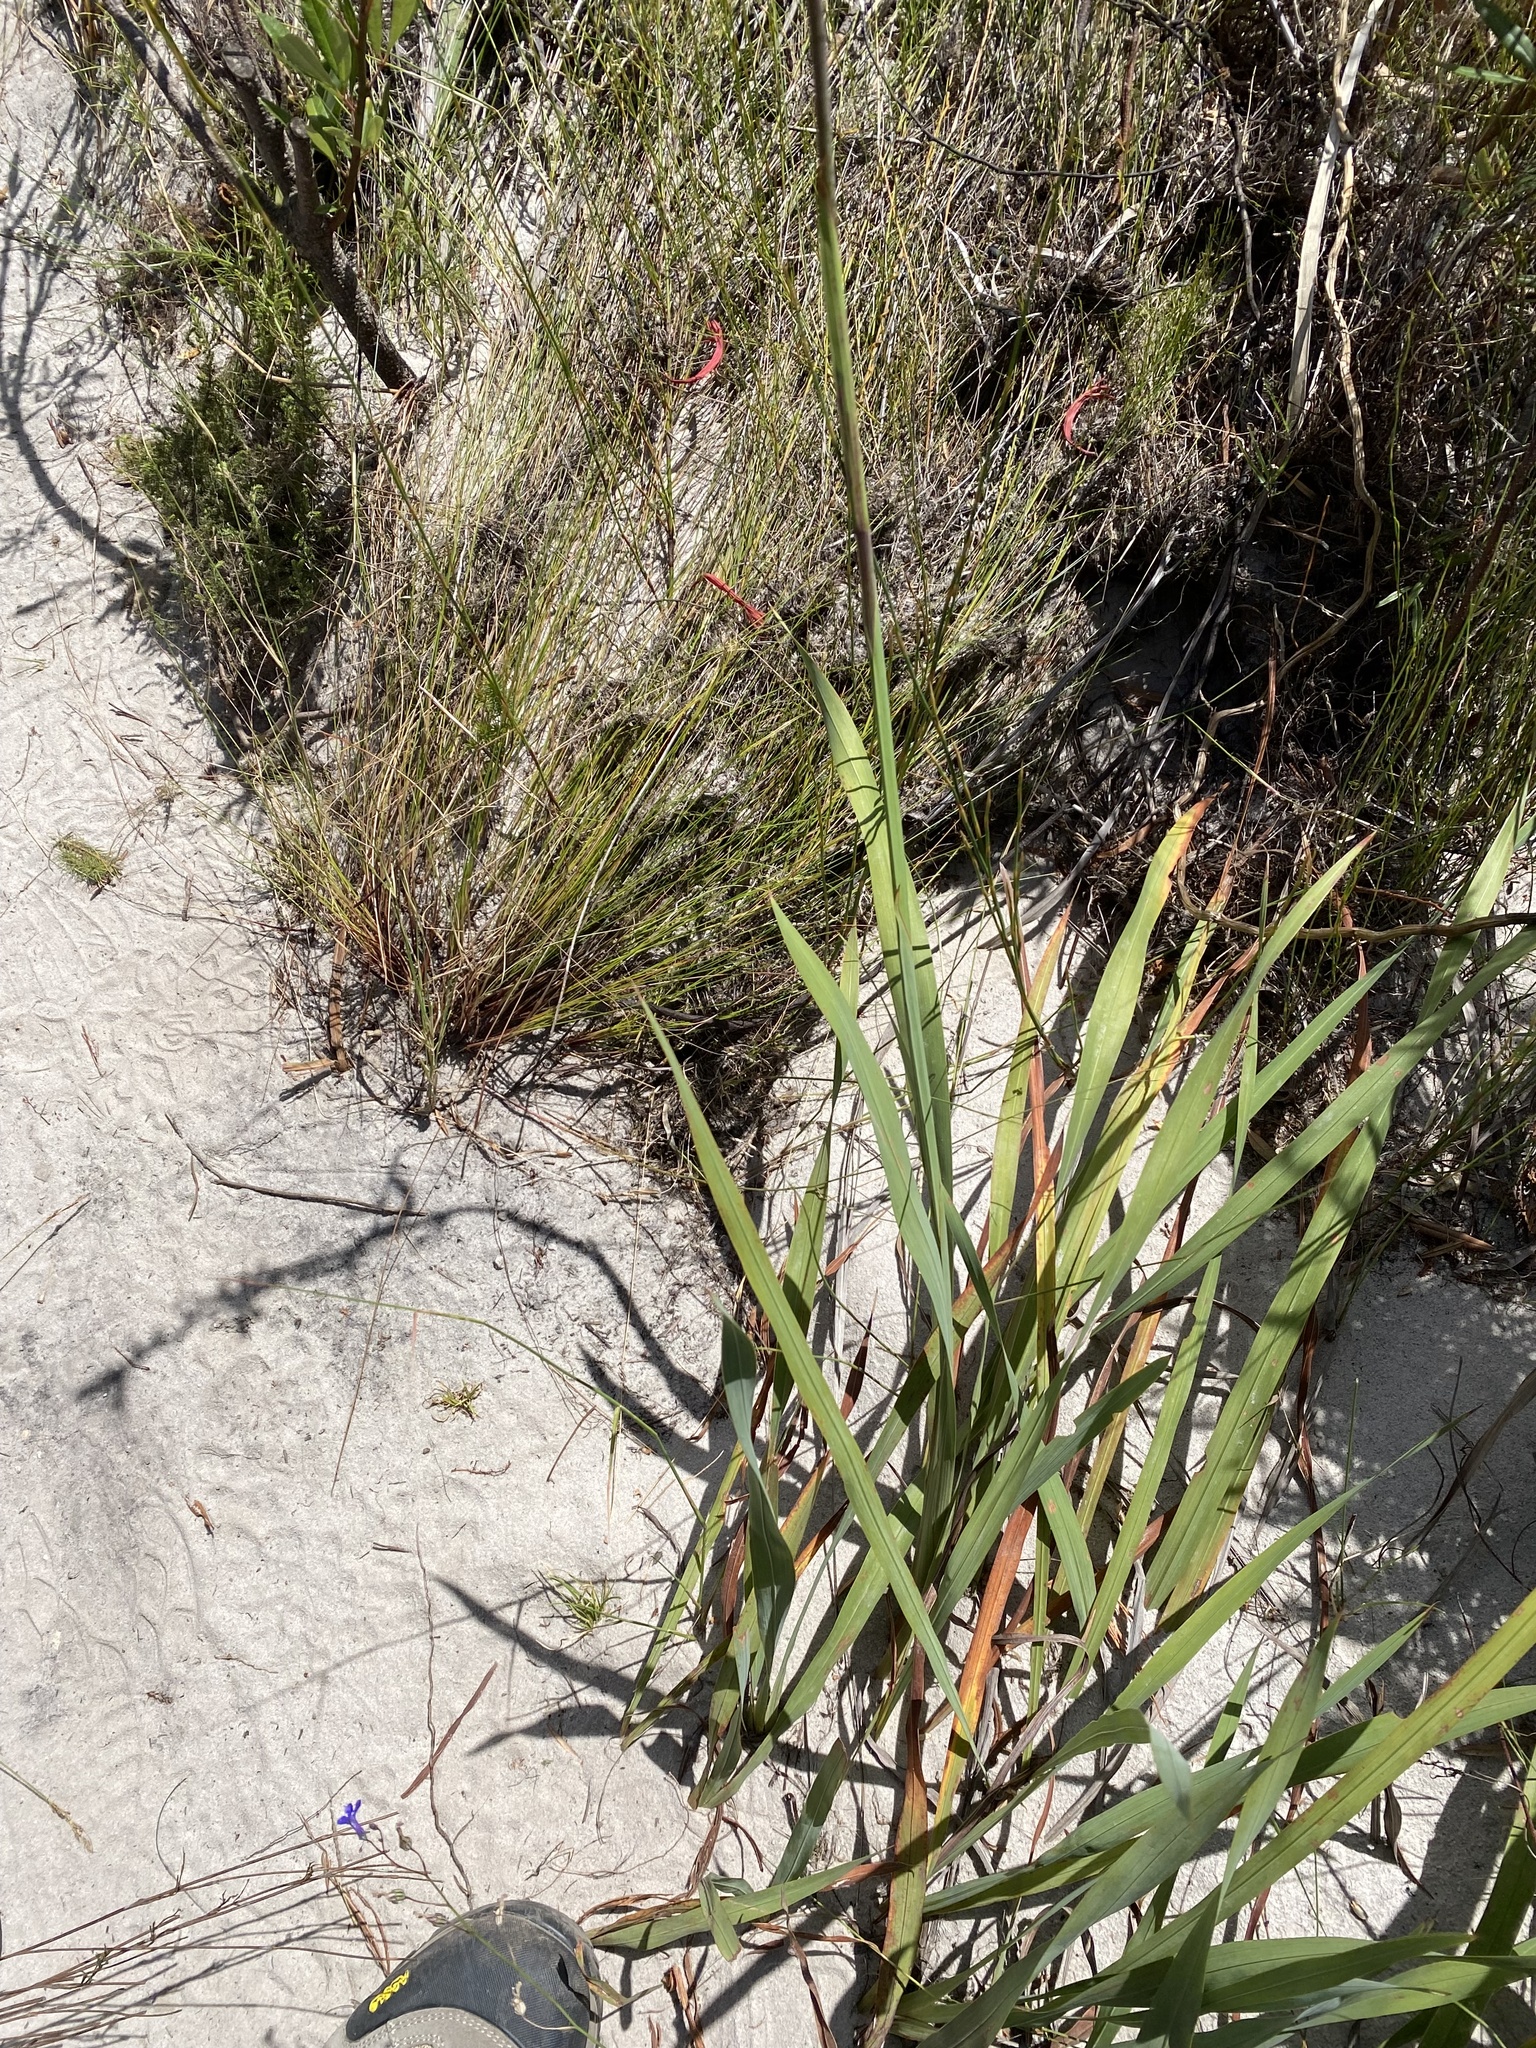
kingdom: Plantae
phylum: Tracheophyta
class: Liliopsida
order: Asparagales
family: Iridaceae
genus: Watsonia
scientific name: Watsonia angusta
